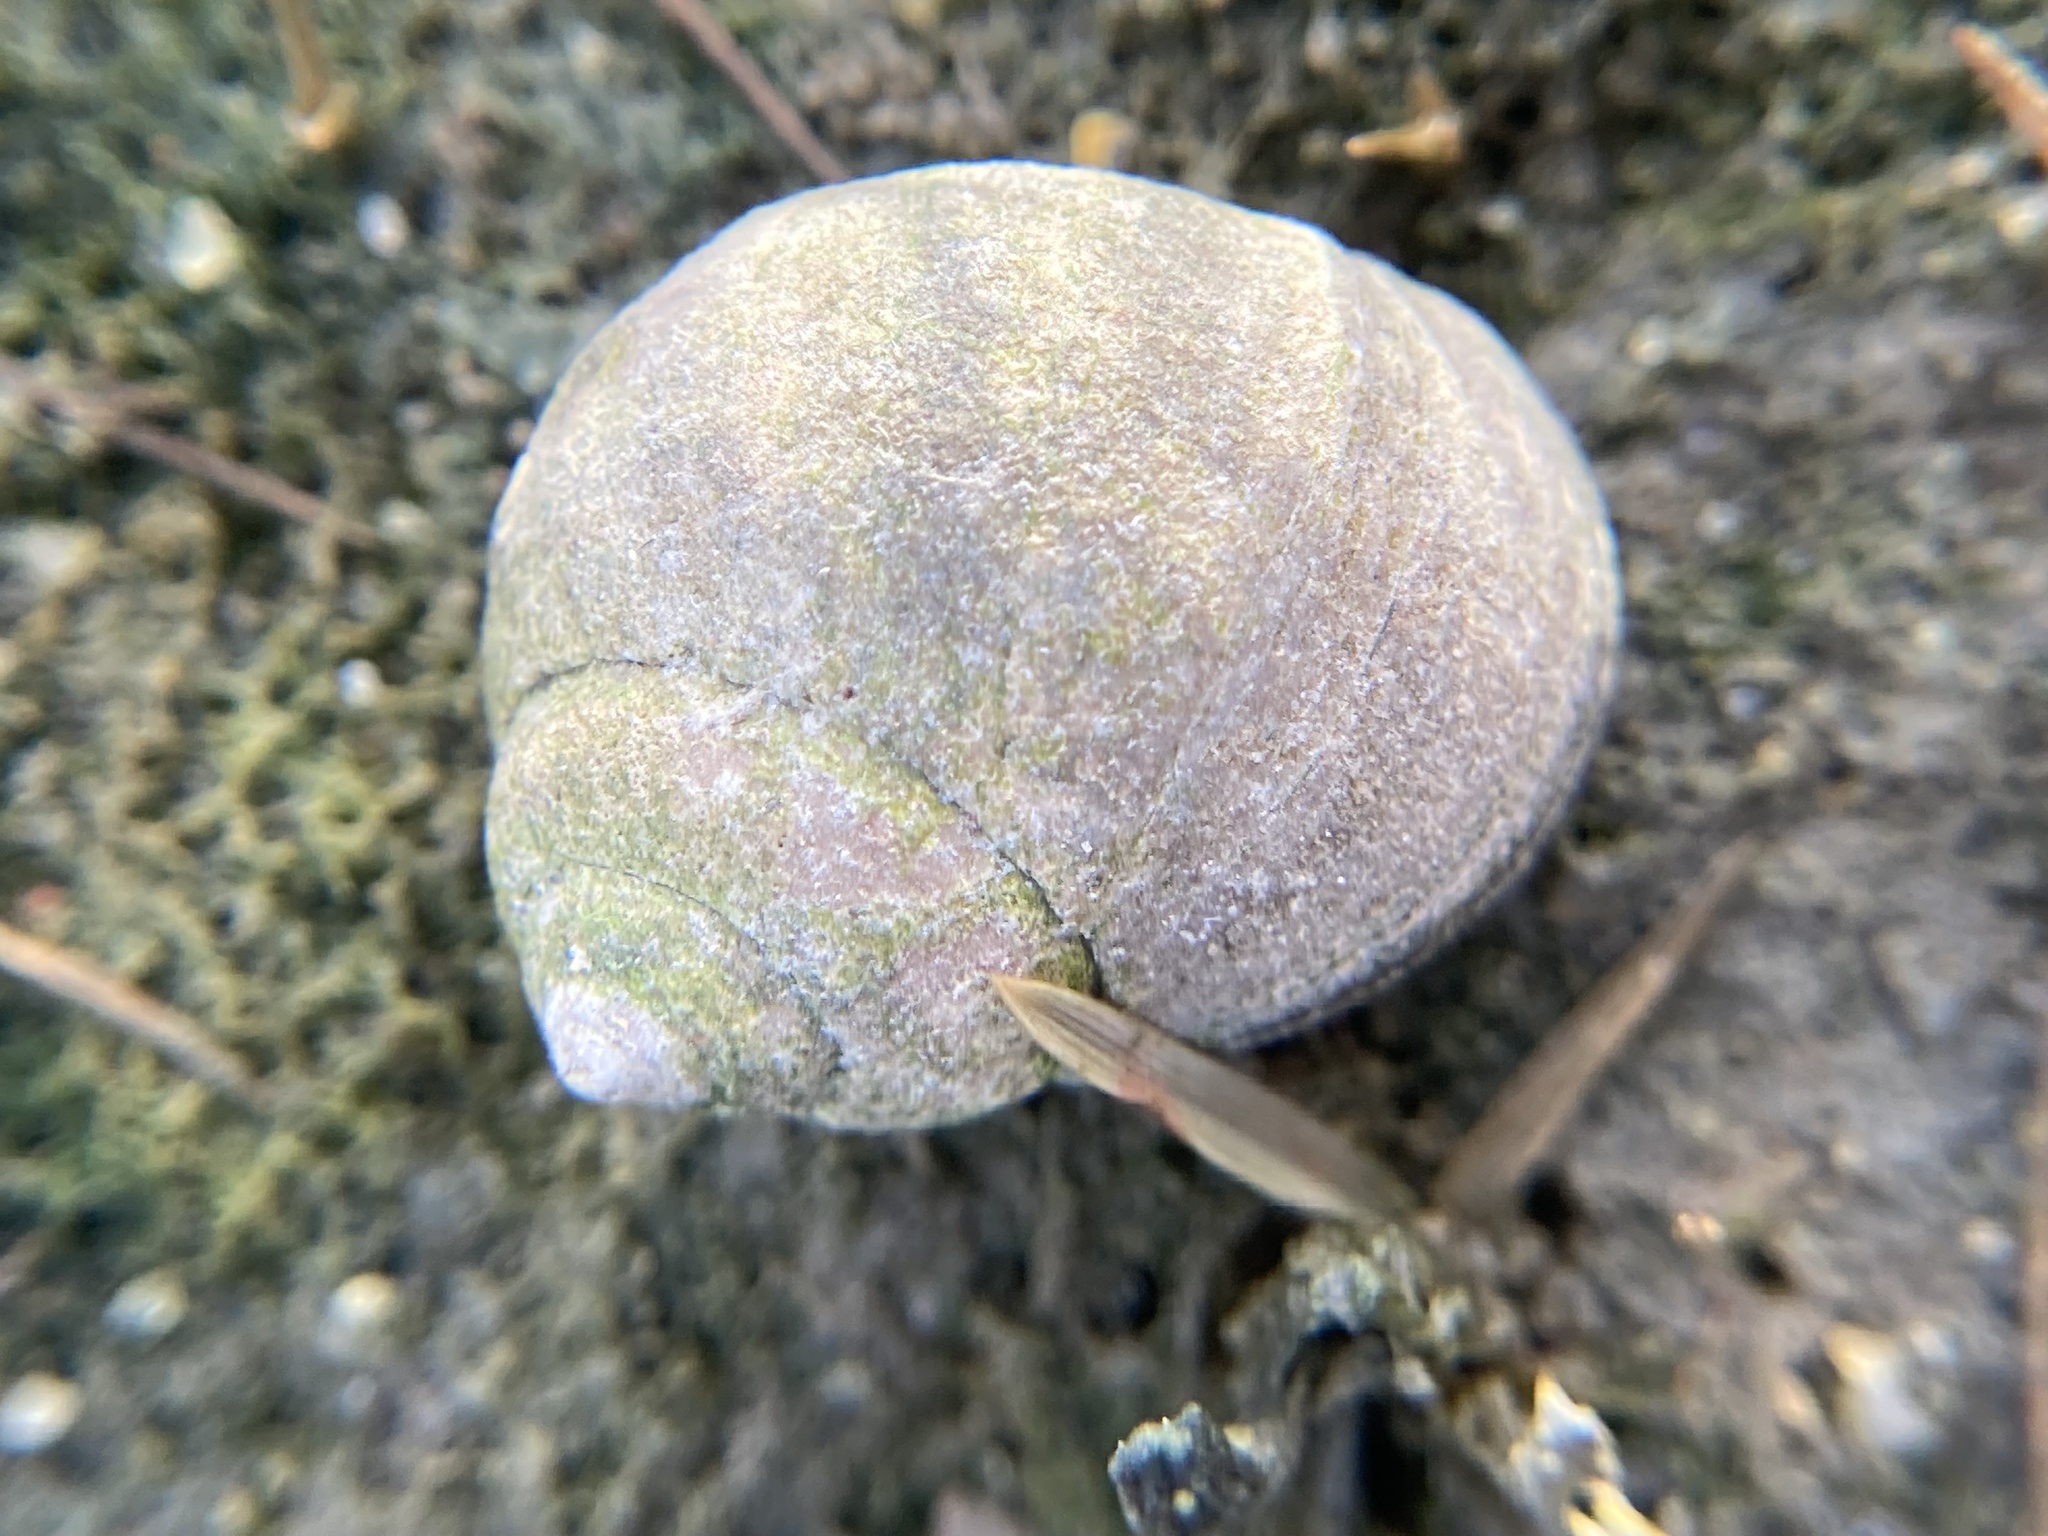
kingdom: Animalia
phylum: Mollusca
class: Gastropoda
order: Littorinimorpha
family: Littorinidae
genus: Littorina
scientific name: Littorina littorea
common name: Common periwinkle
